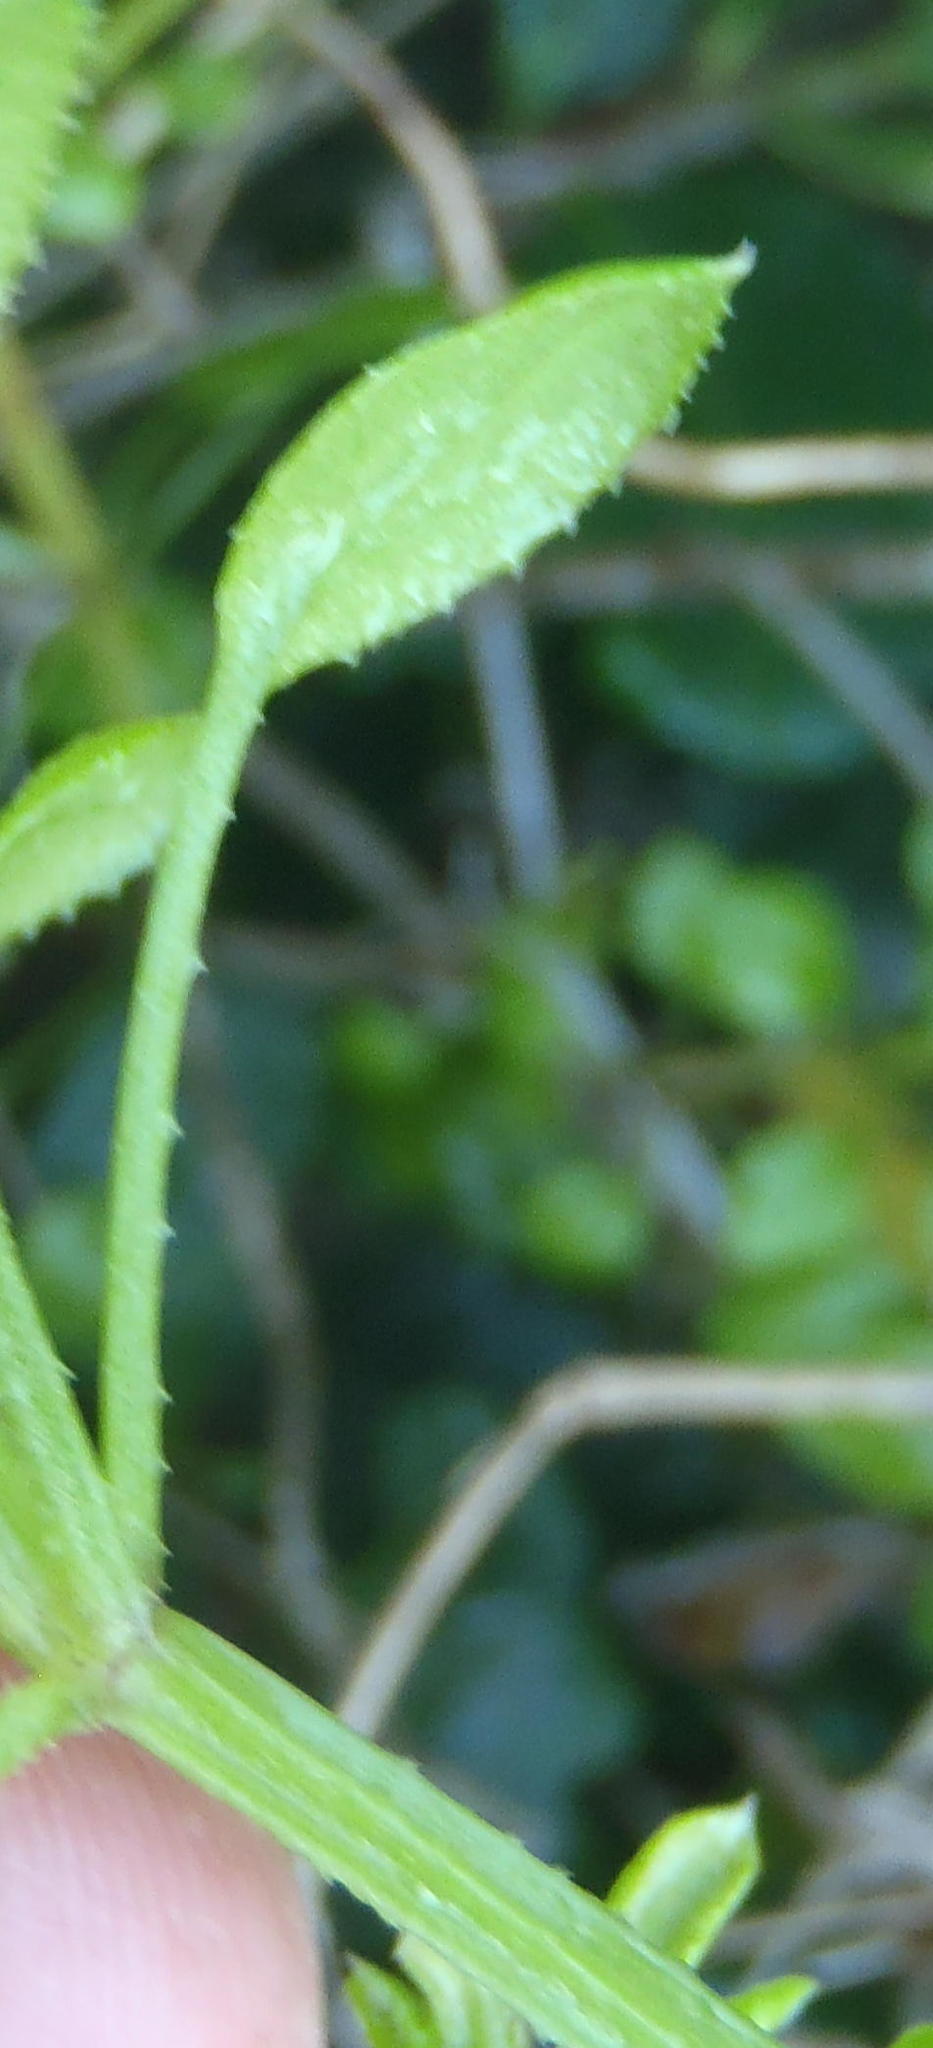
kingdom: Plantae
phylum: Tracheophyta
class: Magnoliopsida
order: Gentianales
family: Rubiaceae
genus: Rubia
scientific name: Rubia petiolaris
